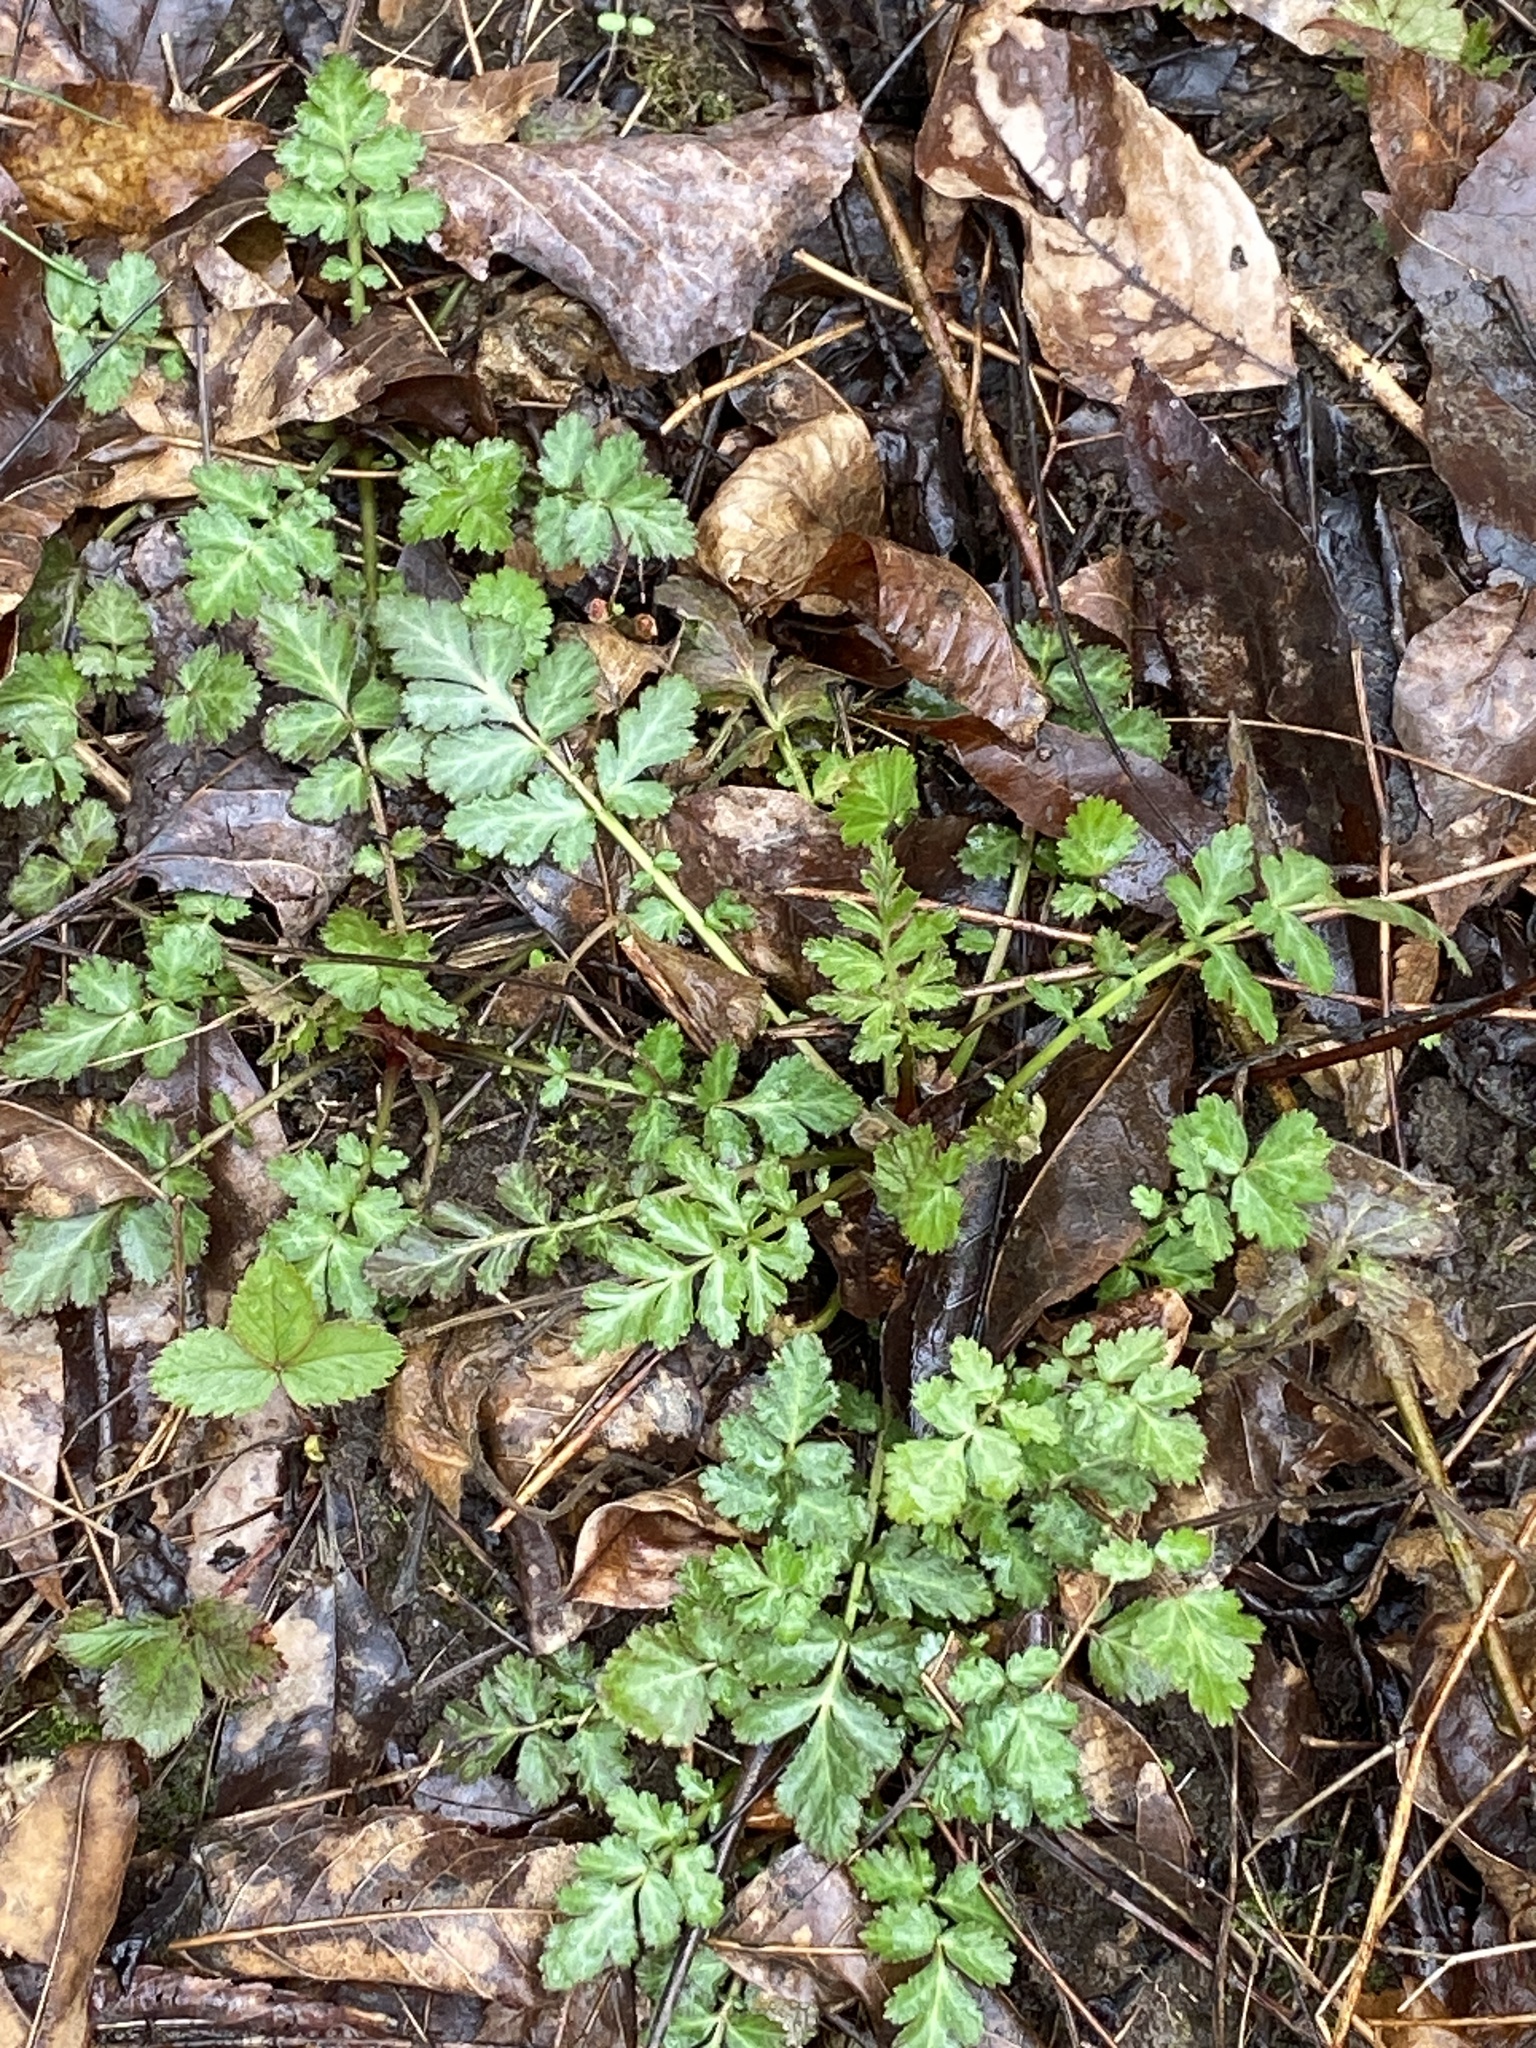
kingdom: Plantae
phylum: Tracheophyta
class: Magnoliopsida
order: Rosales
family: Rosaceae
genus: Geum
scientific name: Geum canadense
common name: White avens
